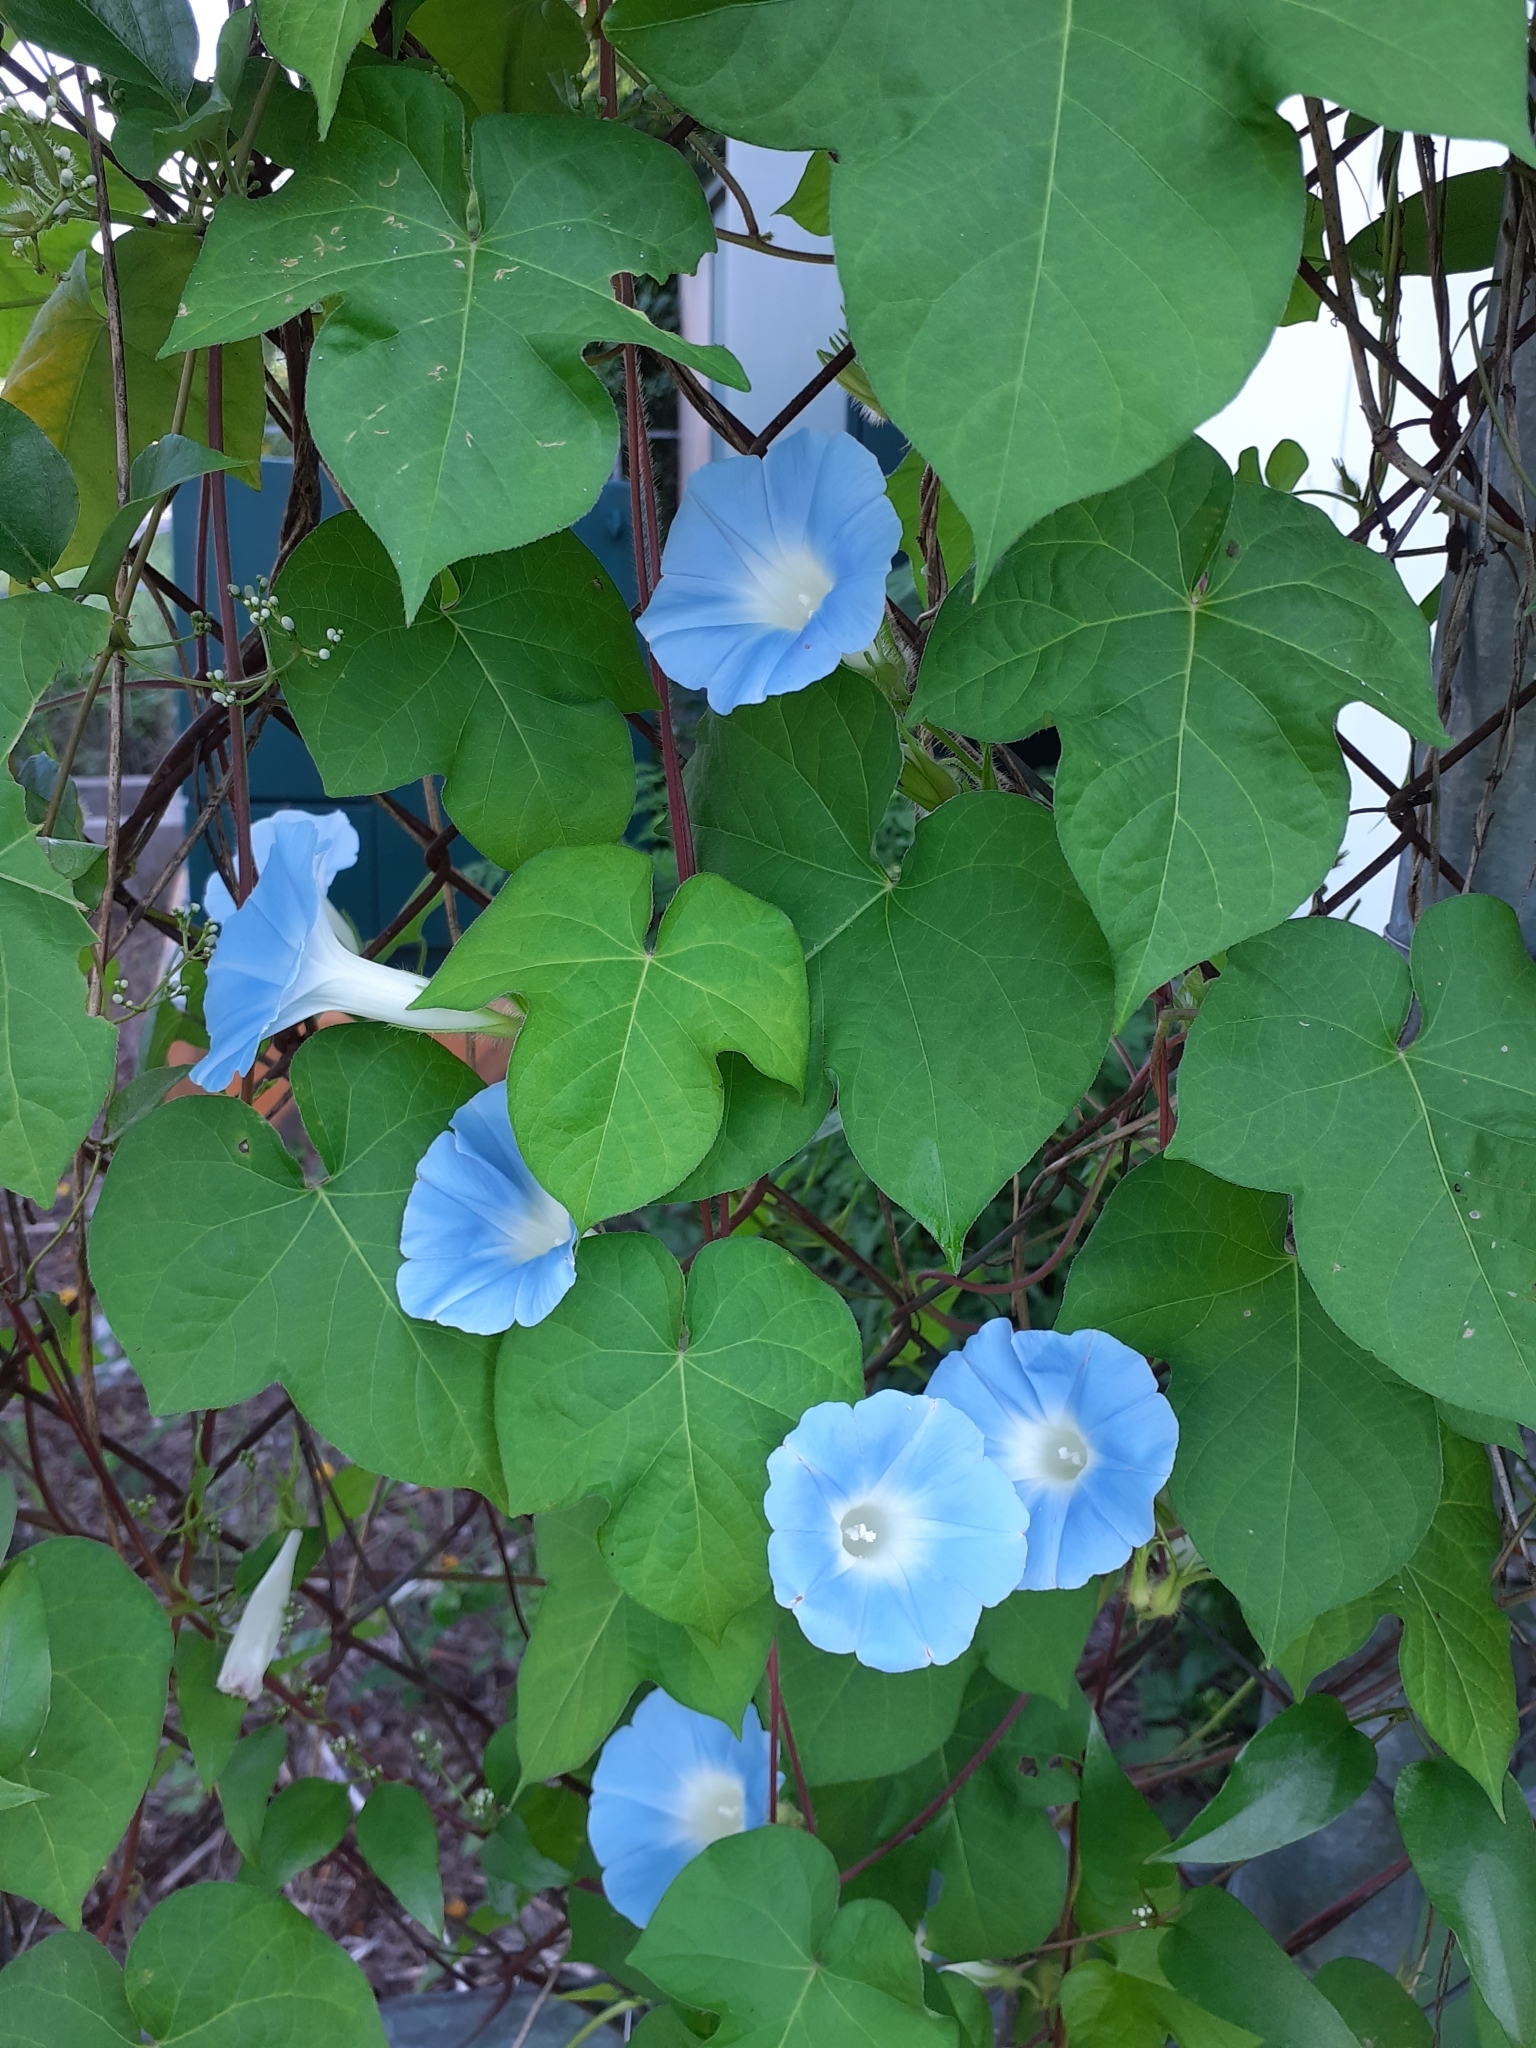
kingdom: Plantae
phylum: Tracheophyta
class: Magnoliopsida
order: Solanales
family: Convolvulaceae
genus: Ipomoea
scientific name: Ipomoea nil
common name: Japanese morning-glory
